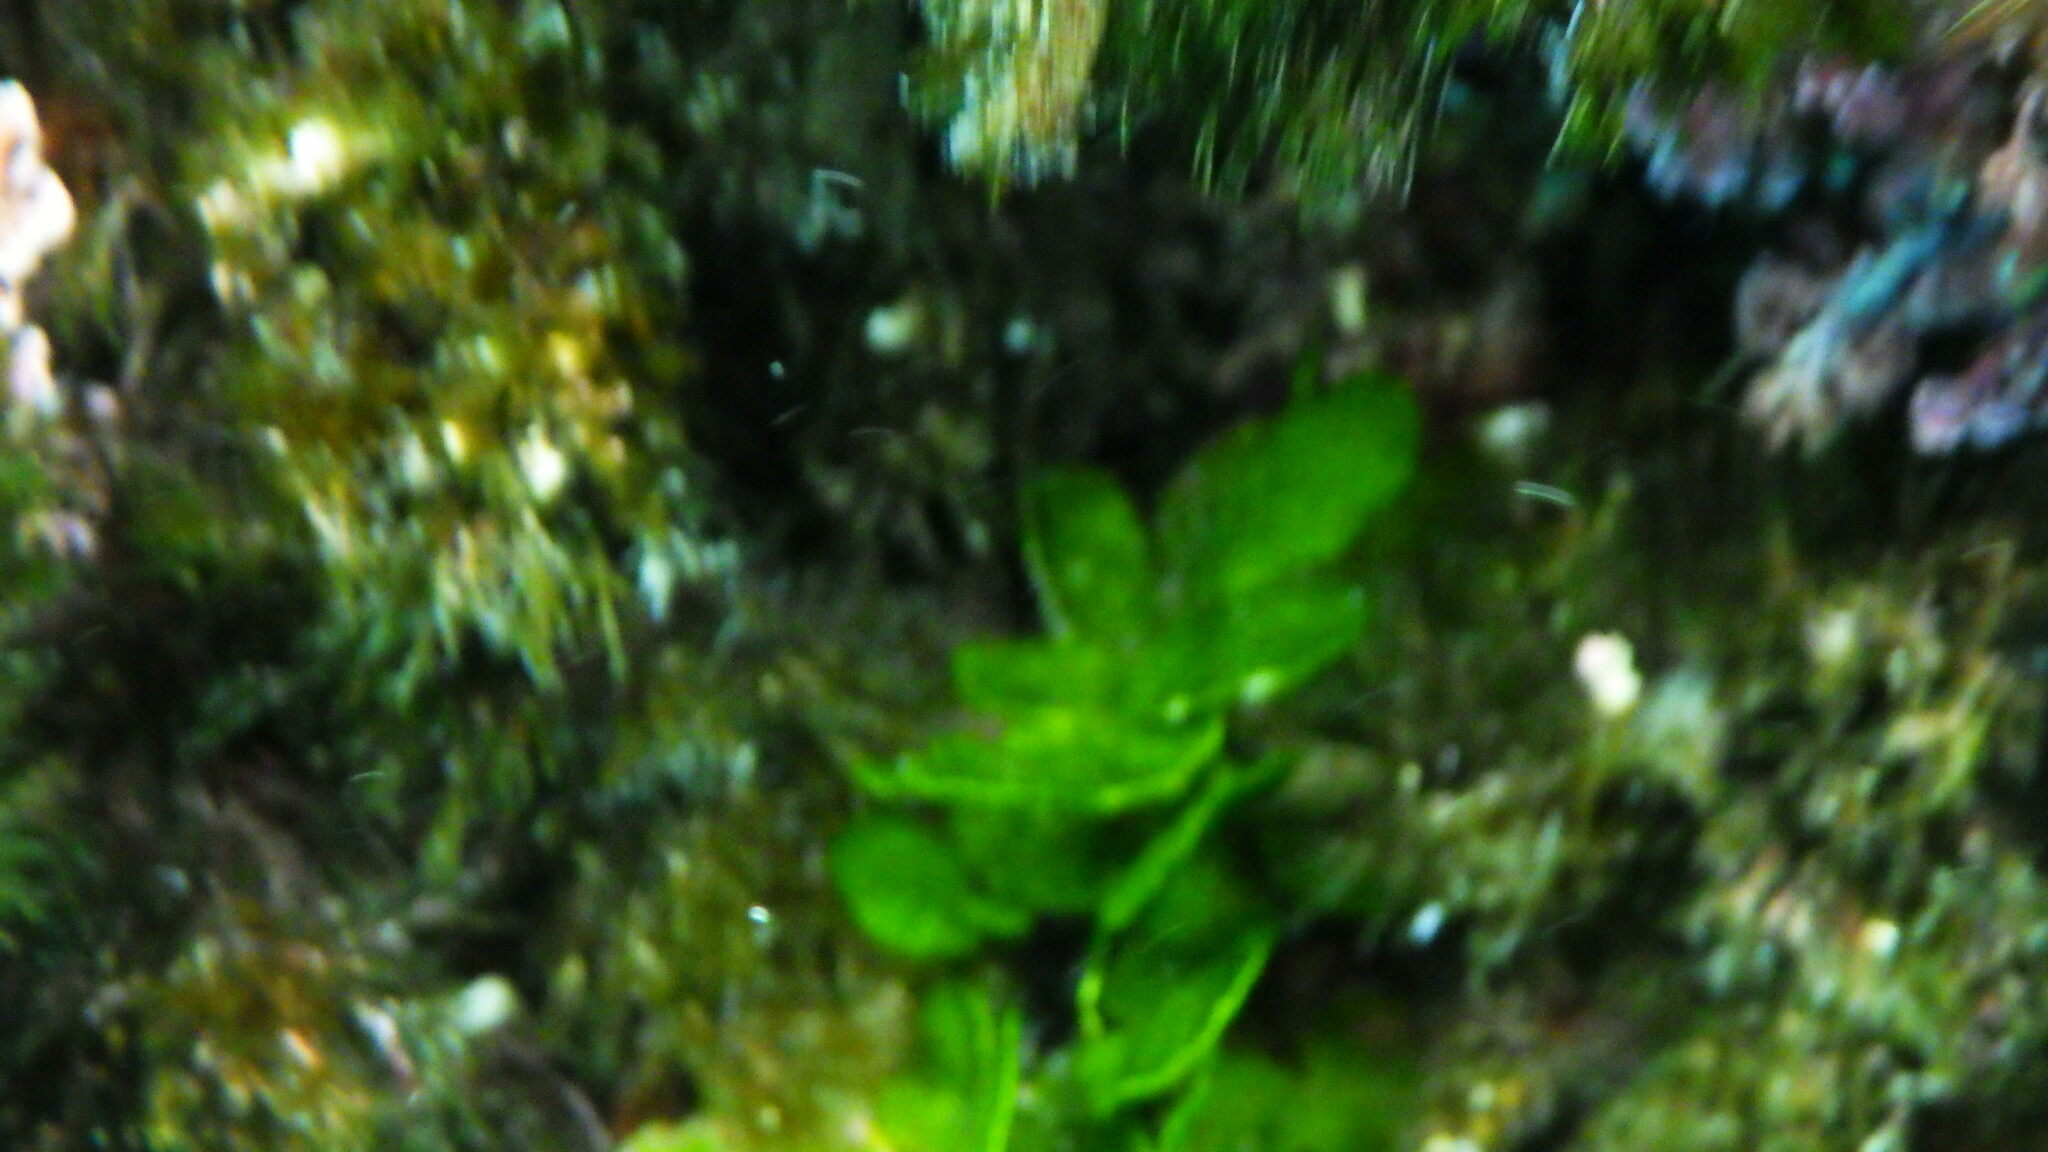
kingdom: Plantae
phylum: Chlorophyta
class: Ulvophyceae
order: Bryopsidales
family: Halimedaceae
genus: Halimeda
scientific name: Halimeda tuna
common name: Stalked lettuce leaf algae
